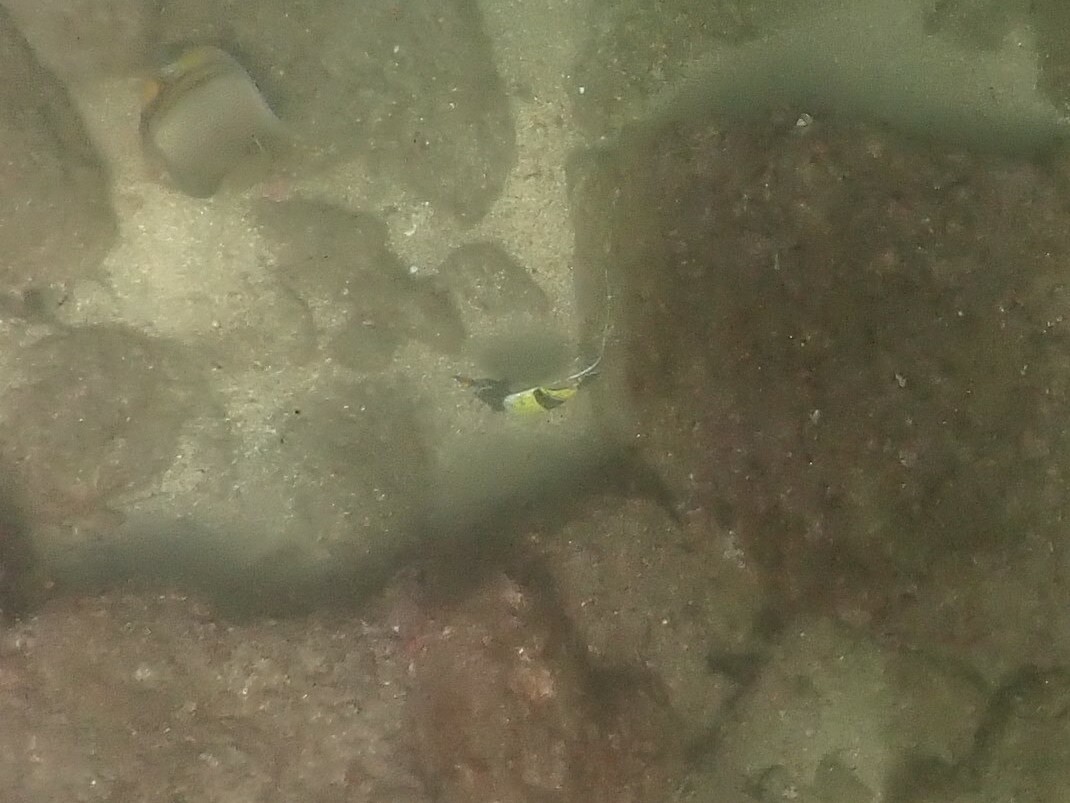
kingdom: Animalia
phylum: Chordata
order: Perciformes
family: Zanclidae
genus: Zanclus
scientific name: Zanclus cornutus
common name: Moorish idol
